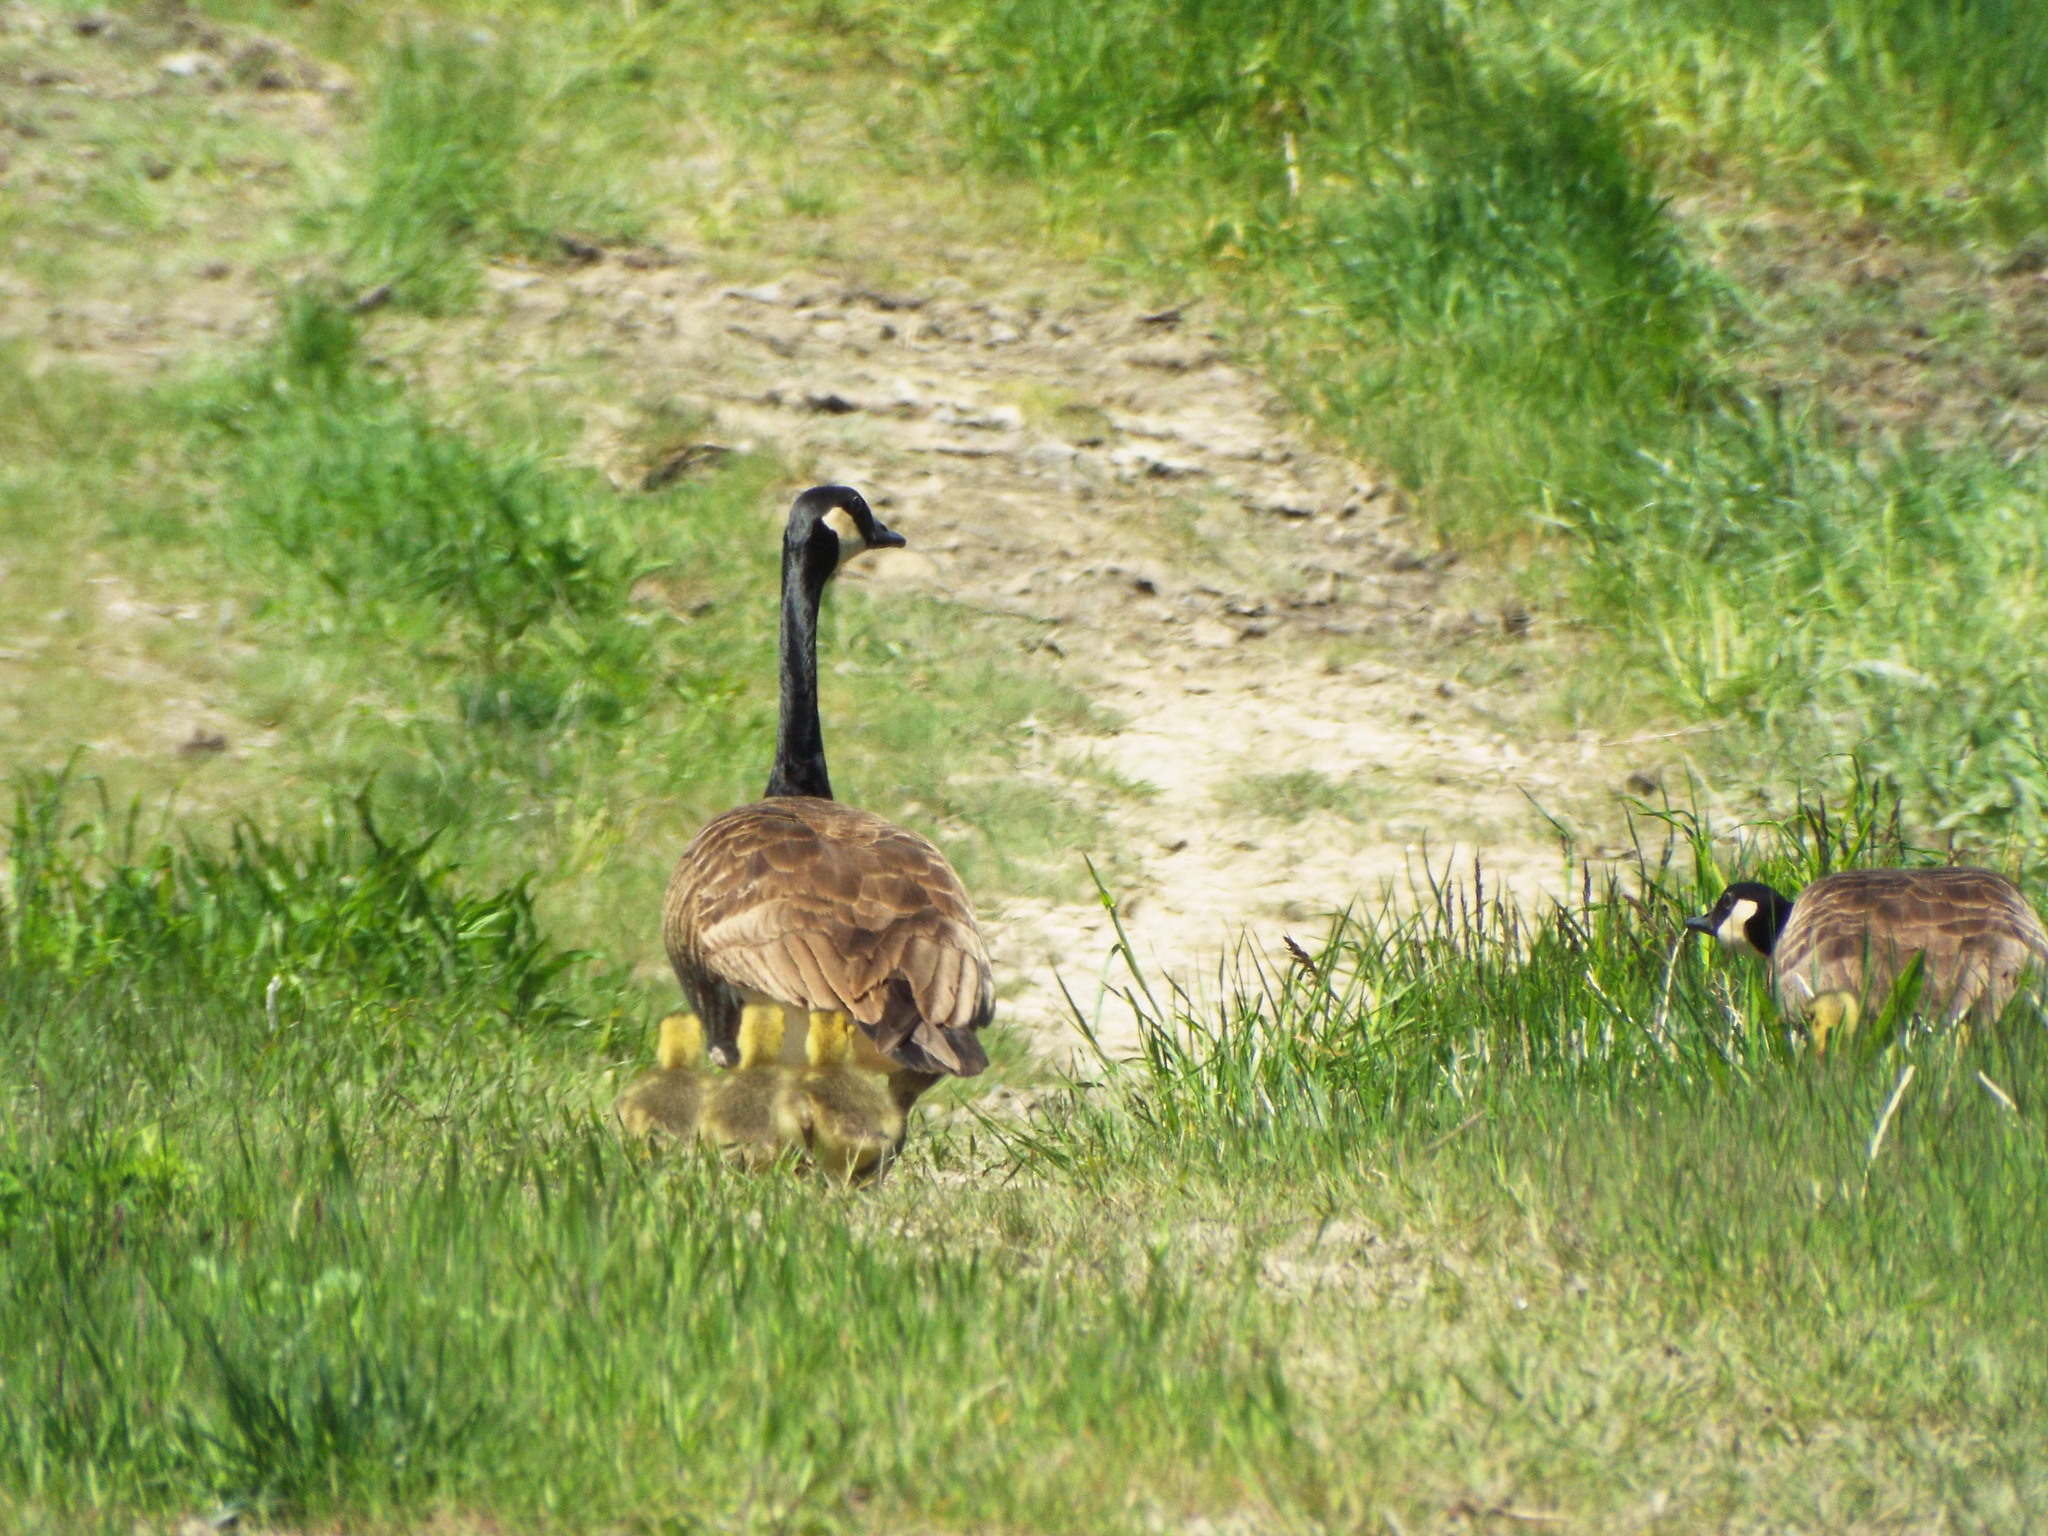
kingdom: Animalia
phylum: Chordata
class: Aves
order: Anseriformes
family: Anatidae
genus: Branta
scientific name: Branta canadensis
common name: Canada goose
